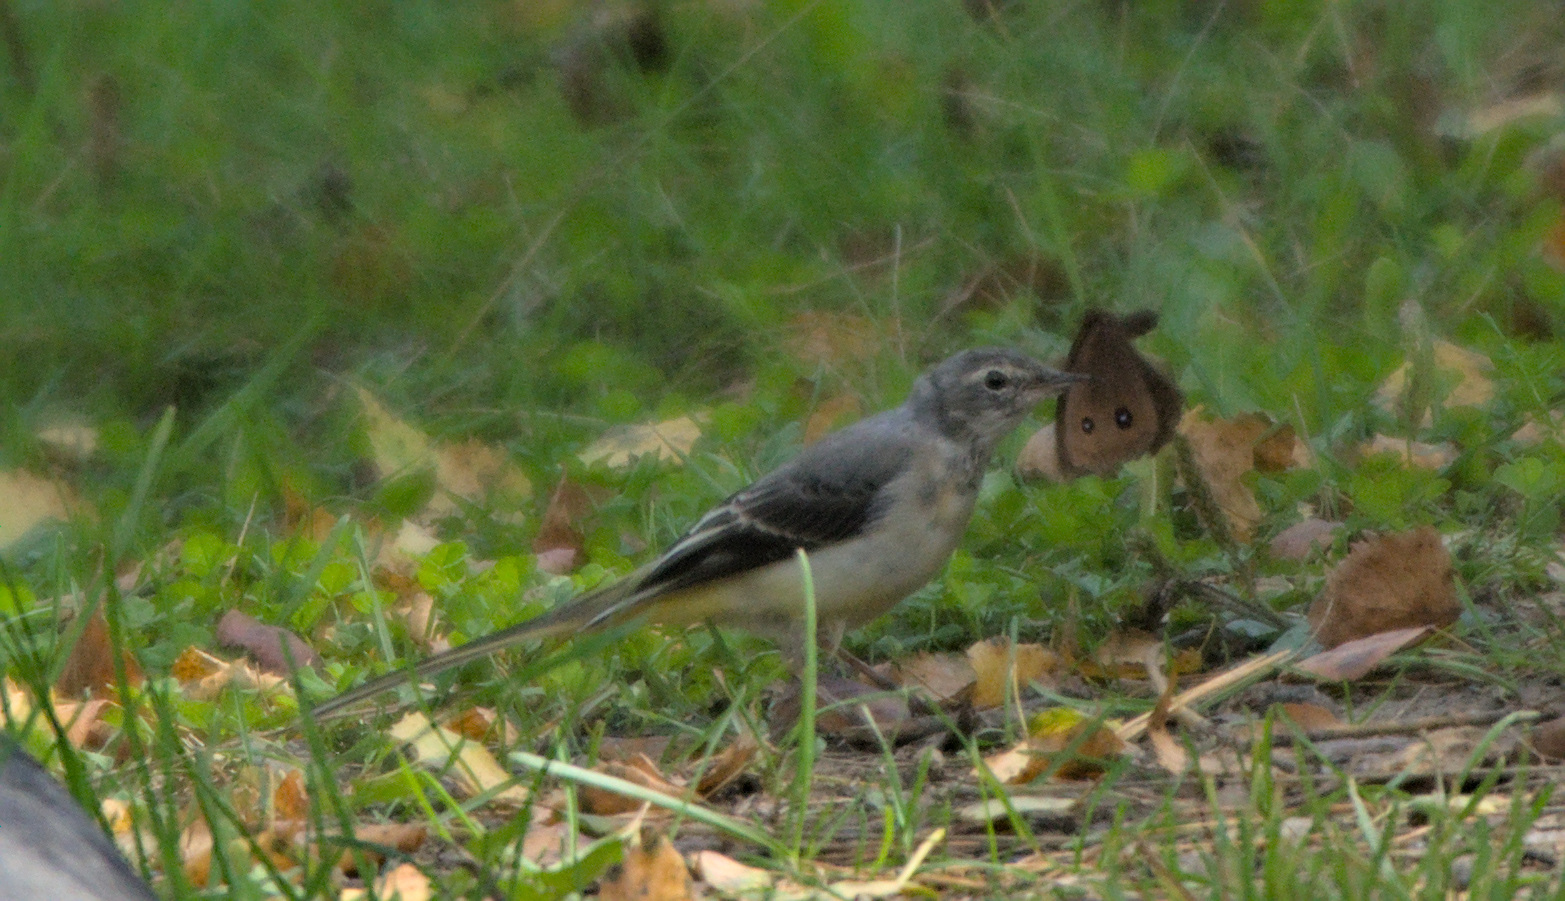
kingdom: Animalia
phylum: Chordata
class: Aves
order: Passeriformes
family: Motacillidae
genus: Motacilla
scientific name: Motacilla cinerea
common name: Grey wagtail
